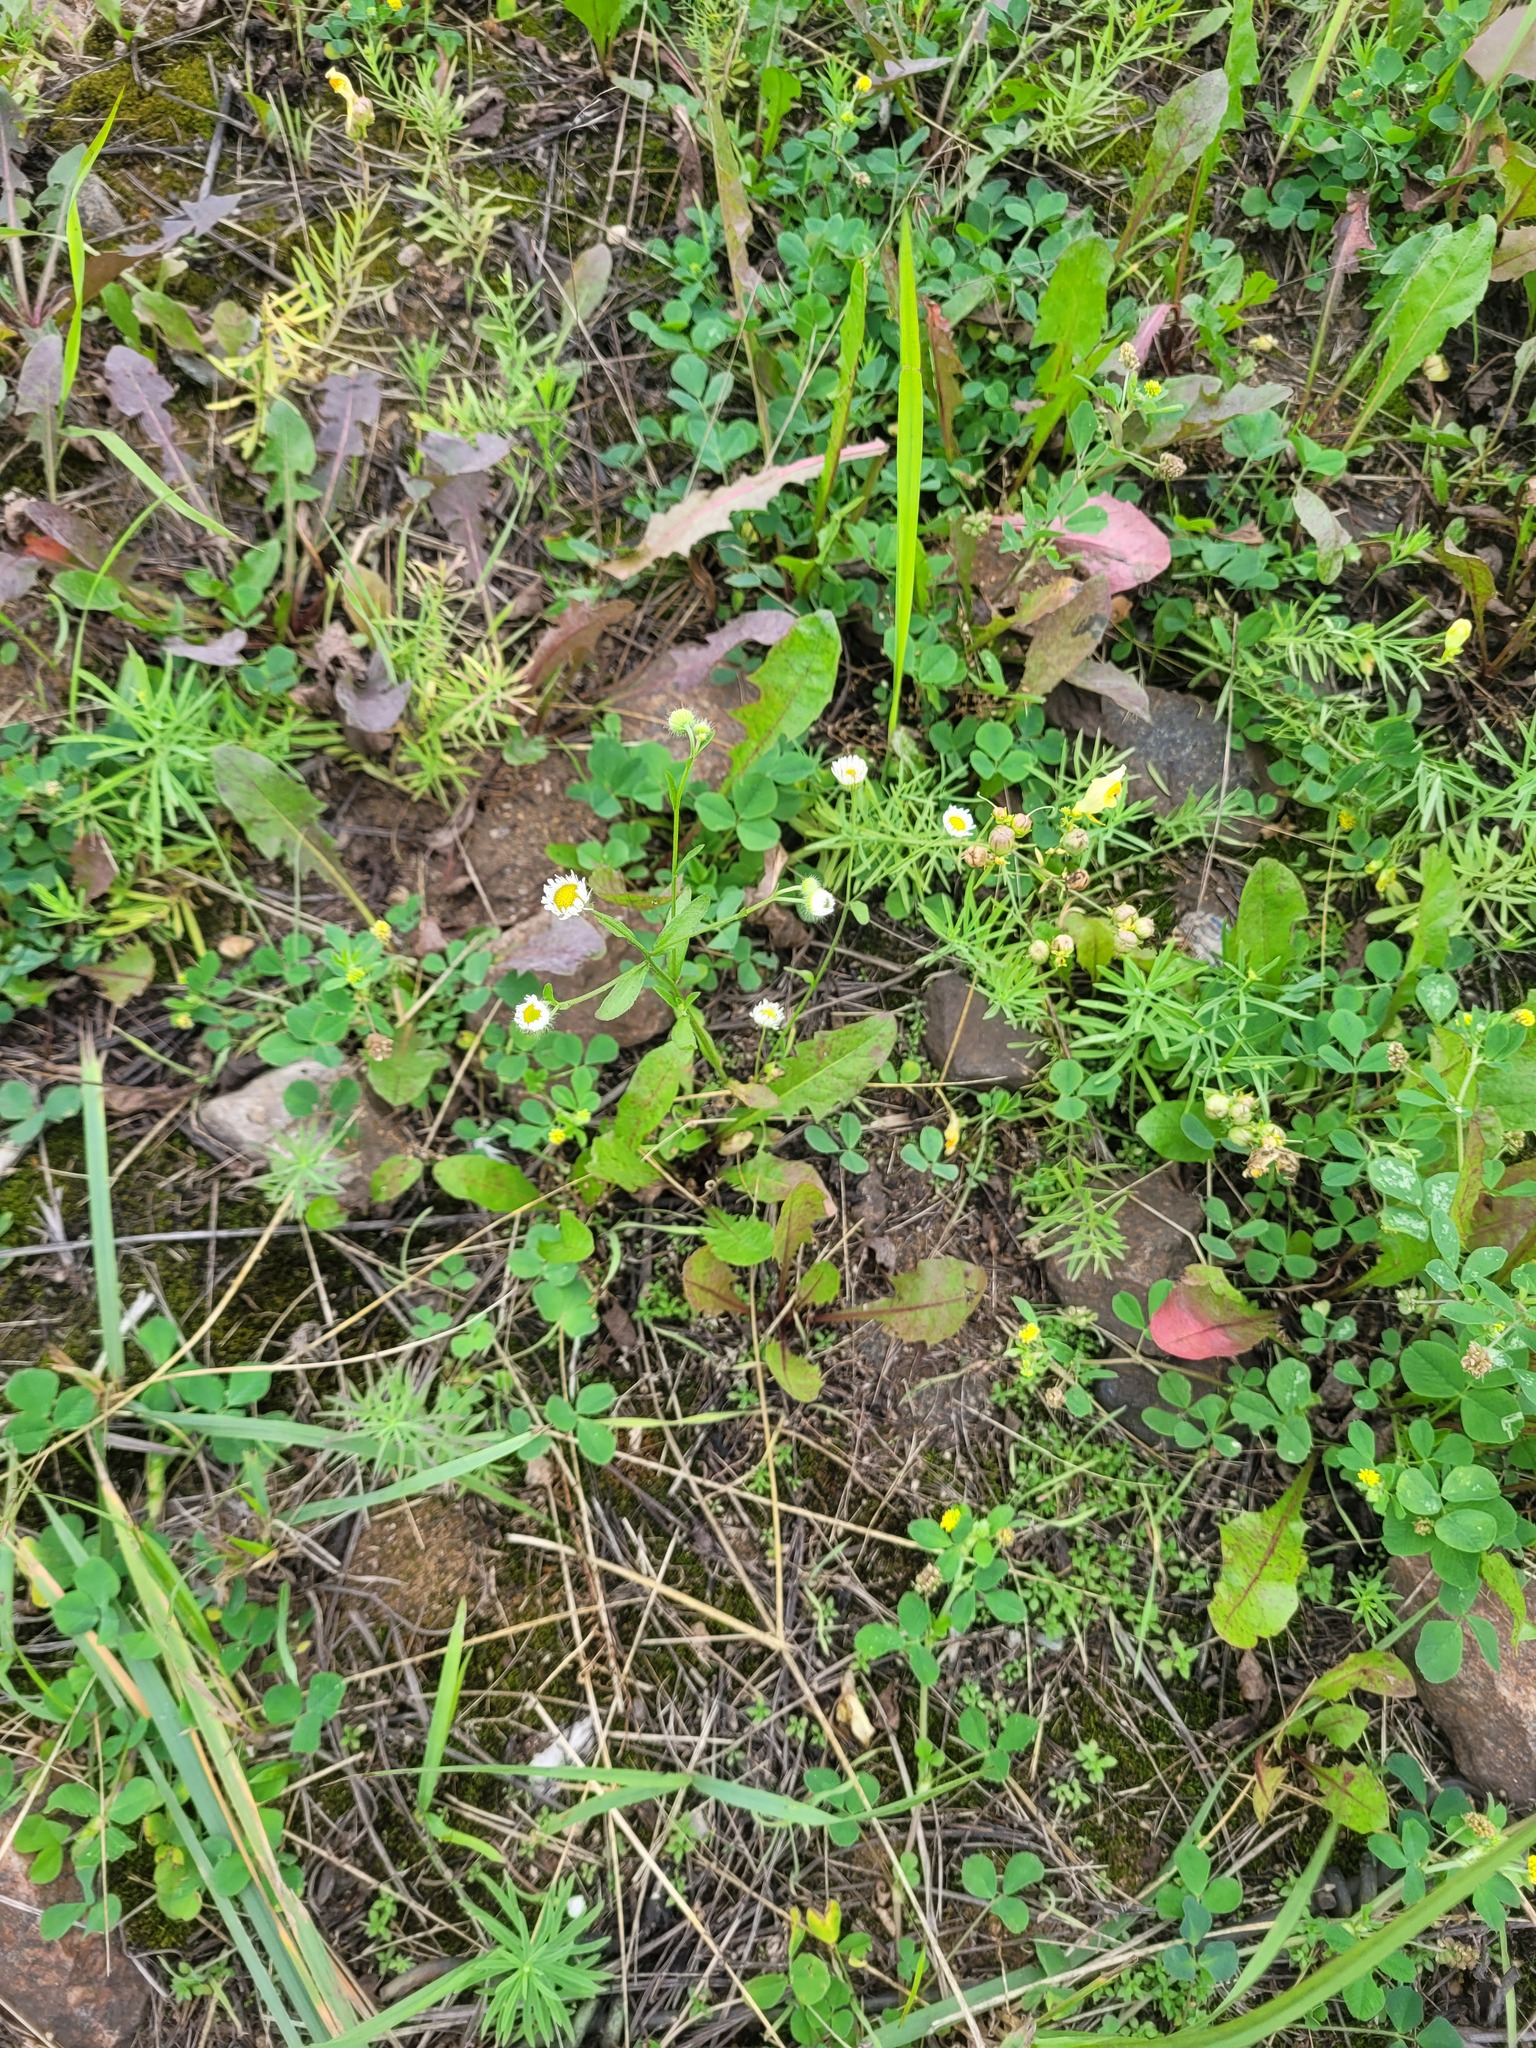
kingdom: Plantae
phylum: Tracheophyta
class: Magnoliopsida
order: Asterales
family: Asteraceae
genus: Erigeron
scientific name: Erigeron annuus
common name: Tall fleabane
